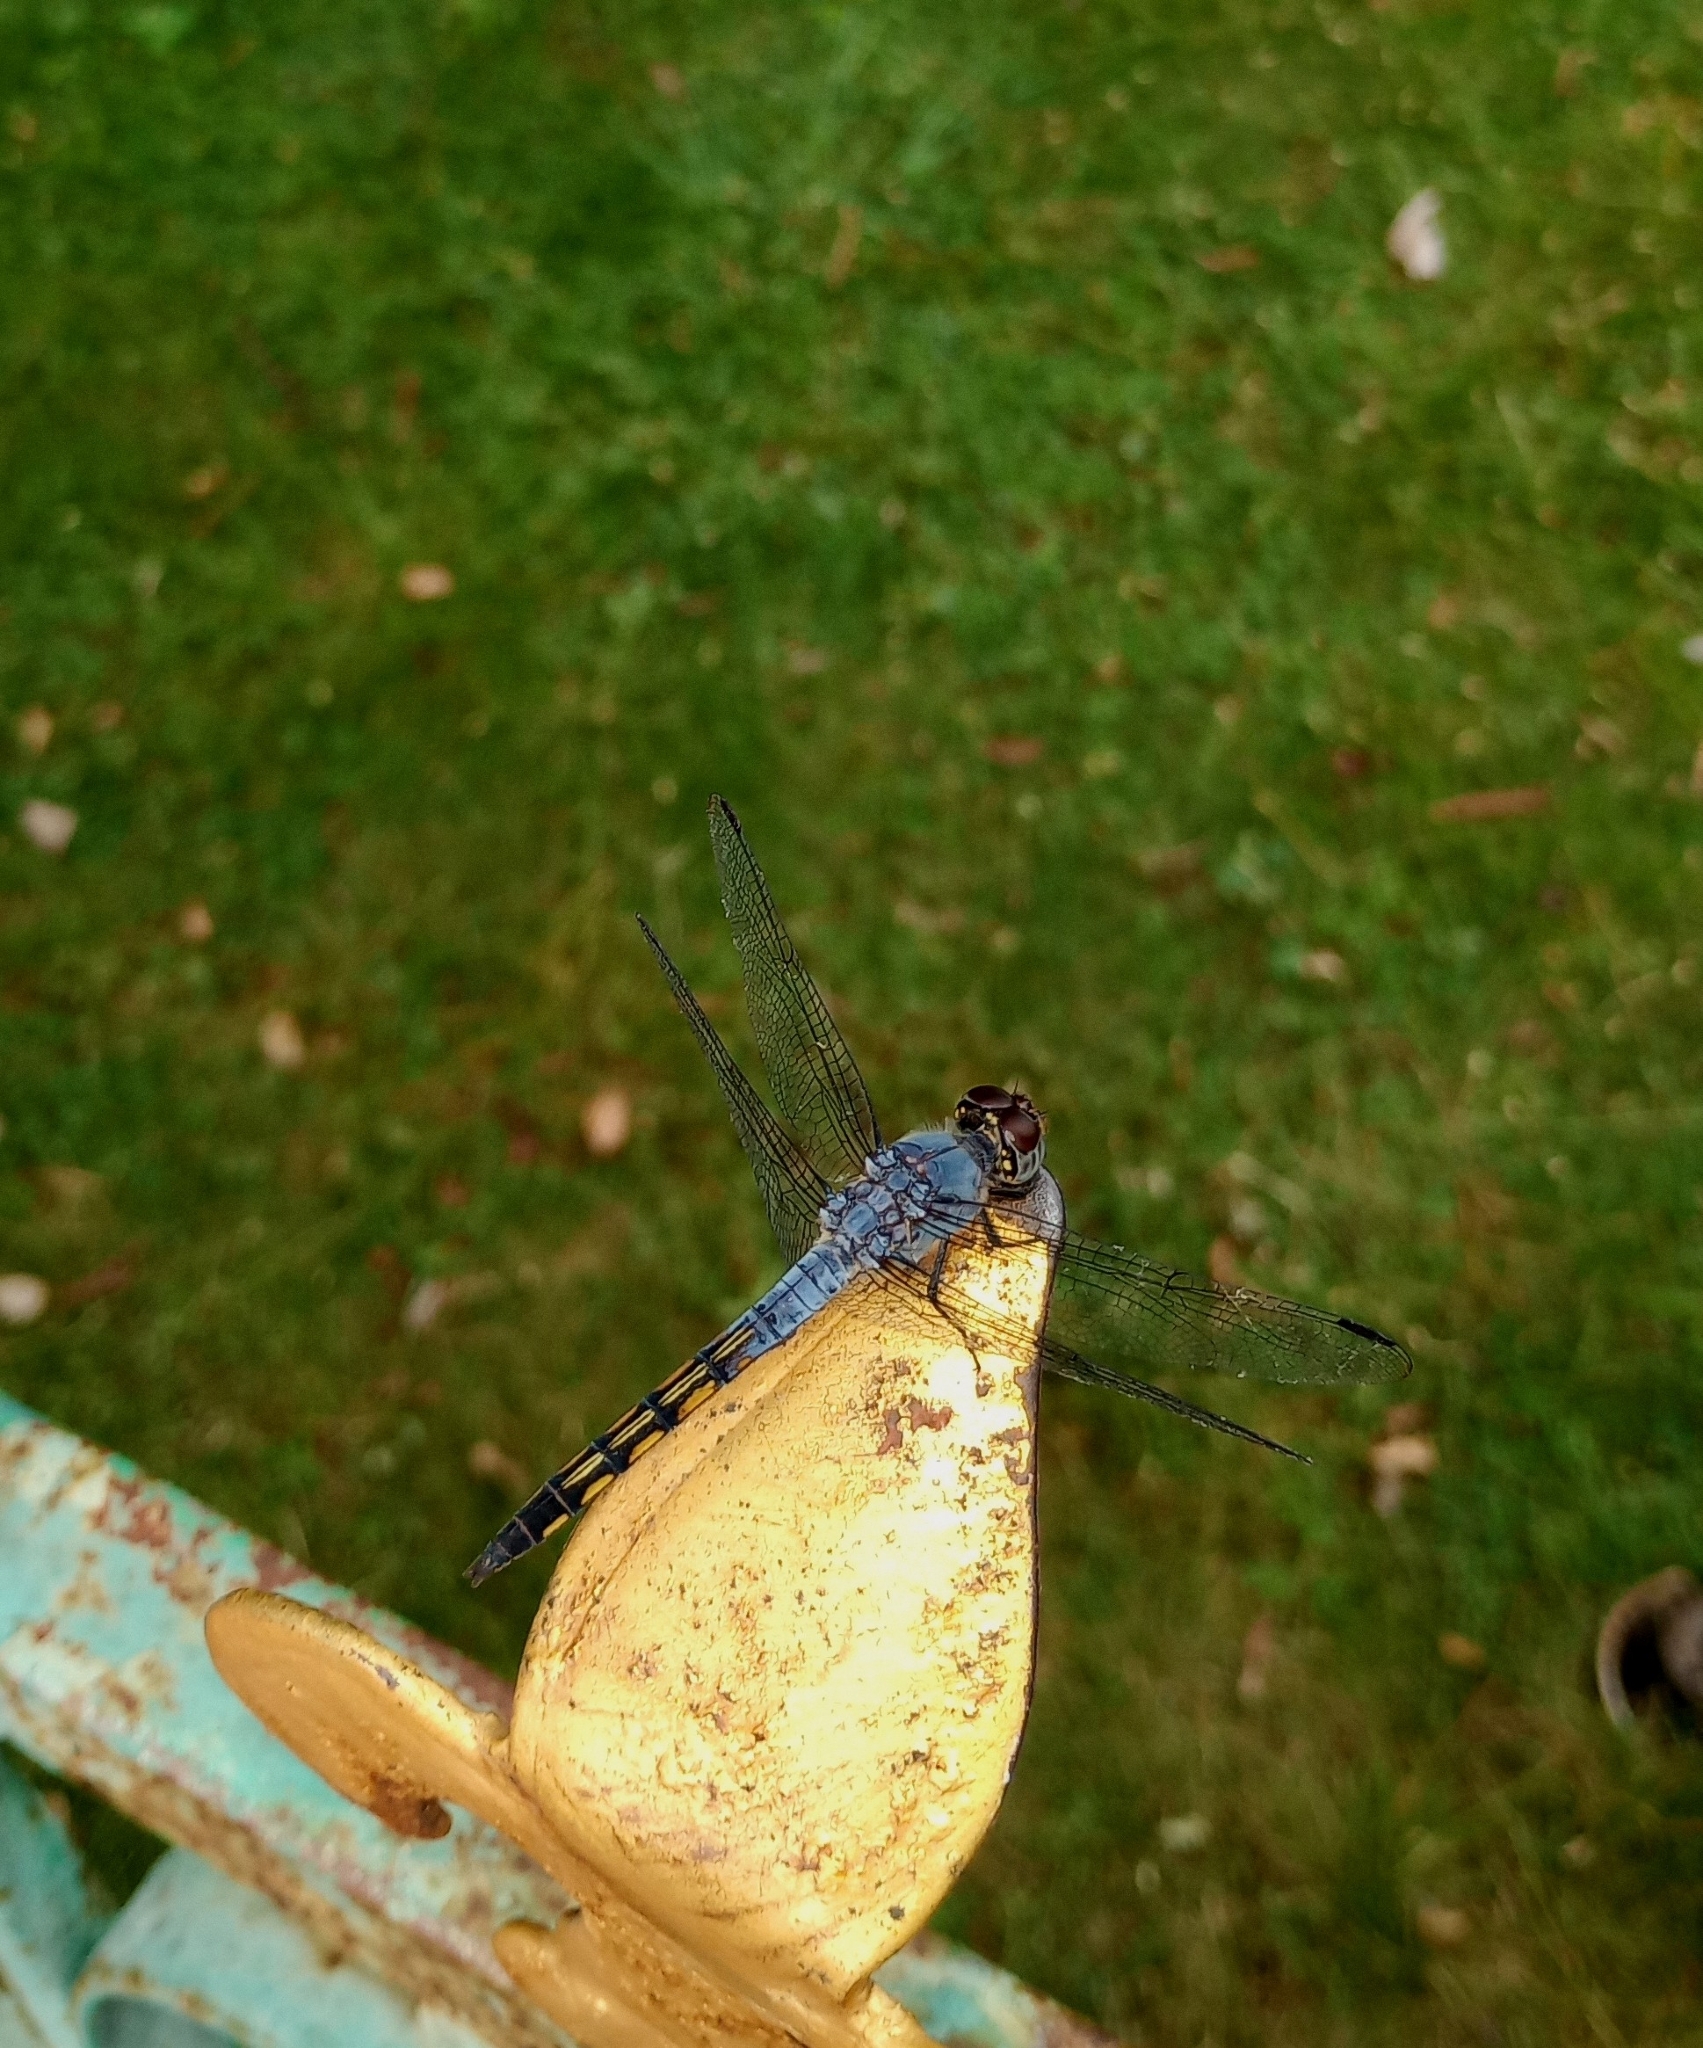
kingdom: Animalia
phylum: Arthropoda
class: Insecta
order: Odonata
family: Libellulidae
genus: Potamarcha
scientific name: Potamarcha congener
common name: Blue chaser
